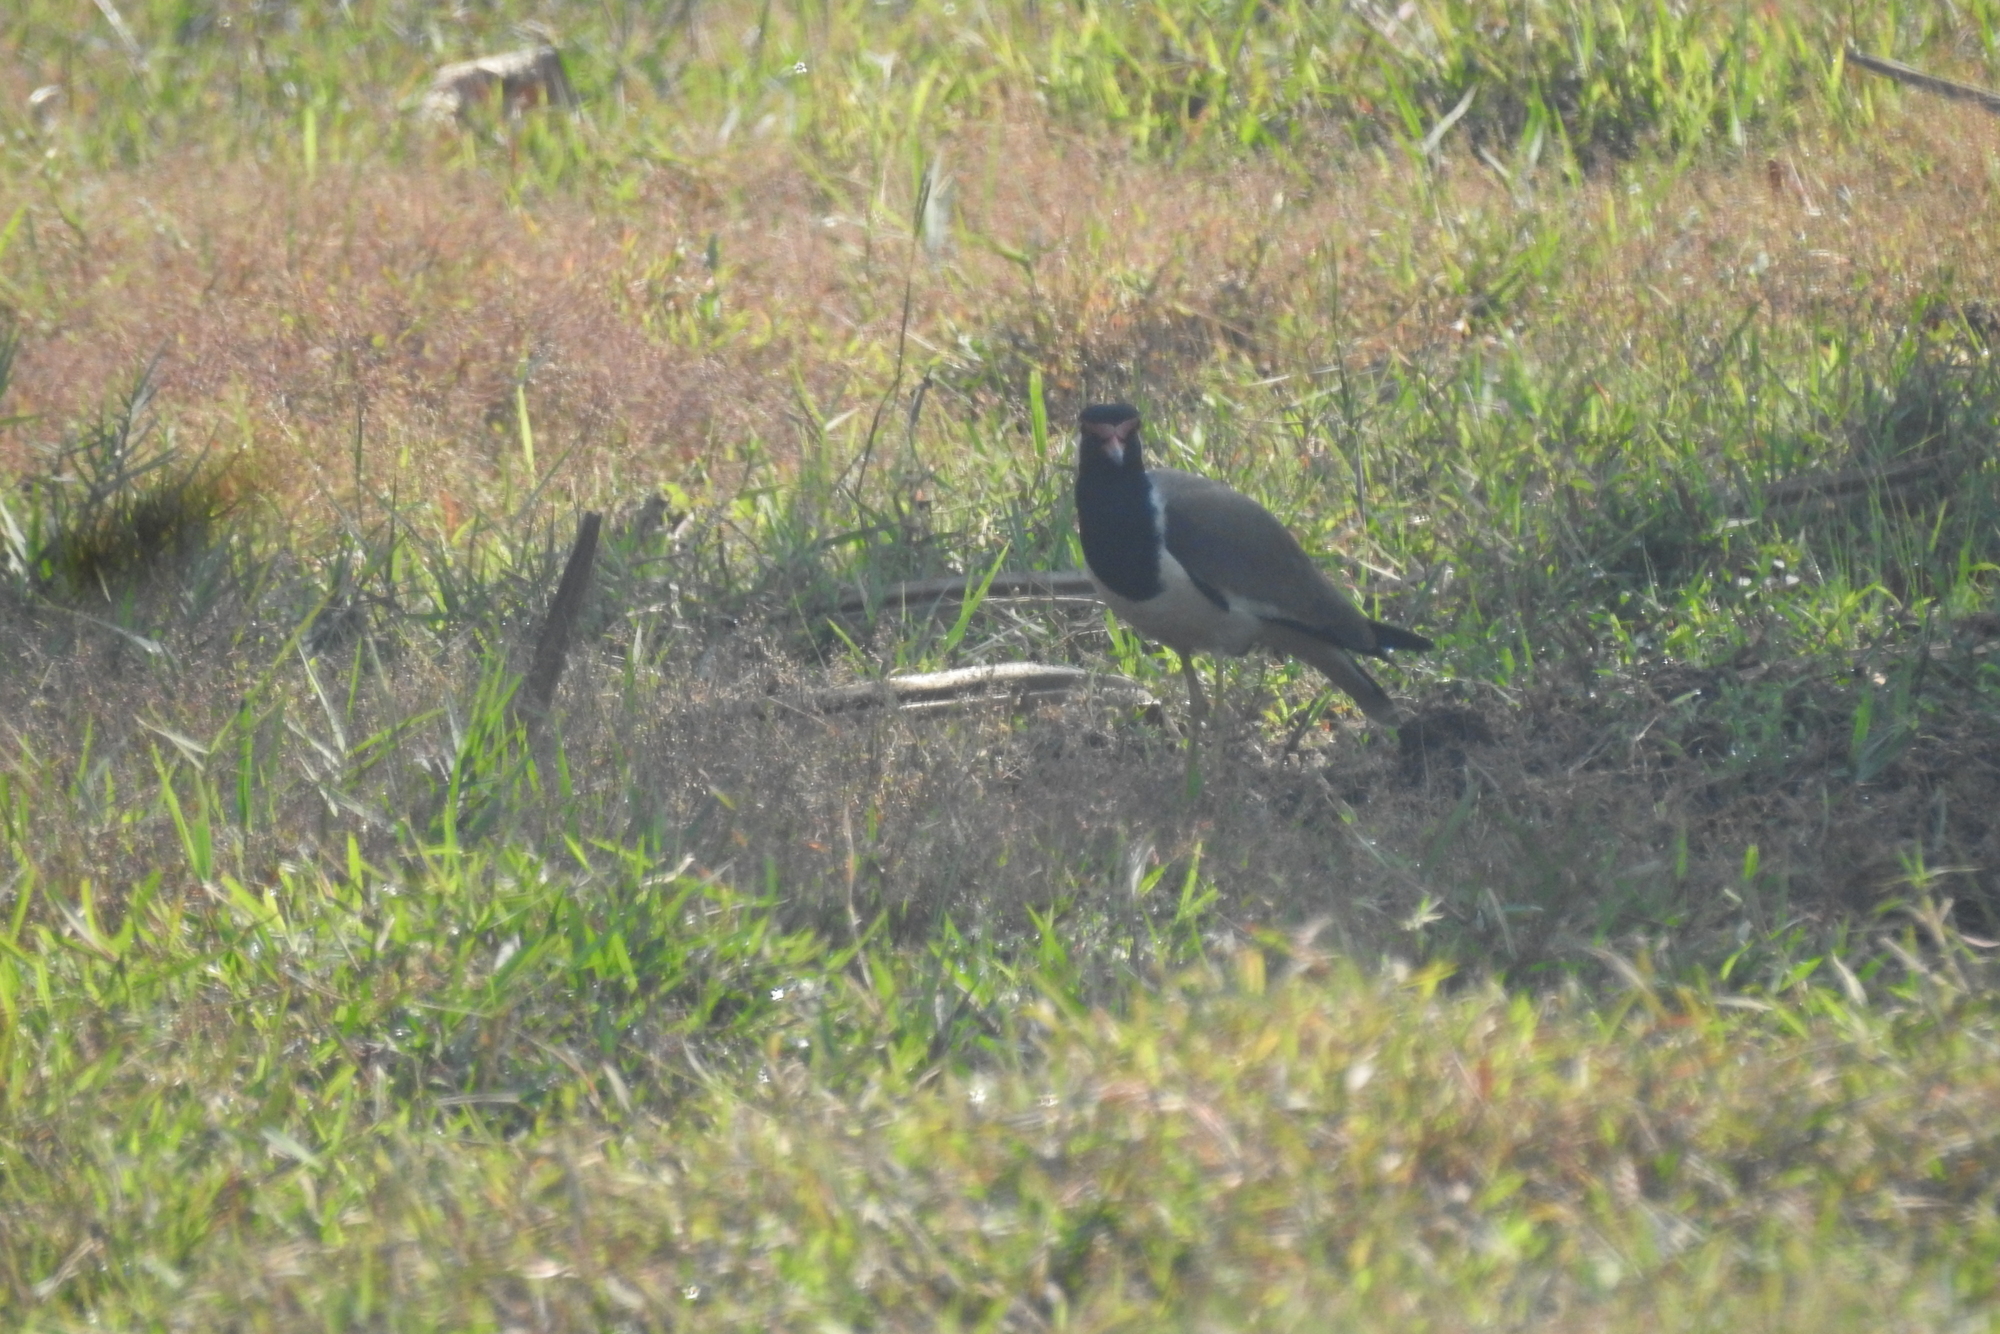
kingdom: Animalia
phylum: Chordata
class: Aves
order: Charadriiformes
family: Charadriidae
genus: Vanellus
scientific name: Vanellus indicus
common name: Red-wattled lapwing
